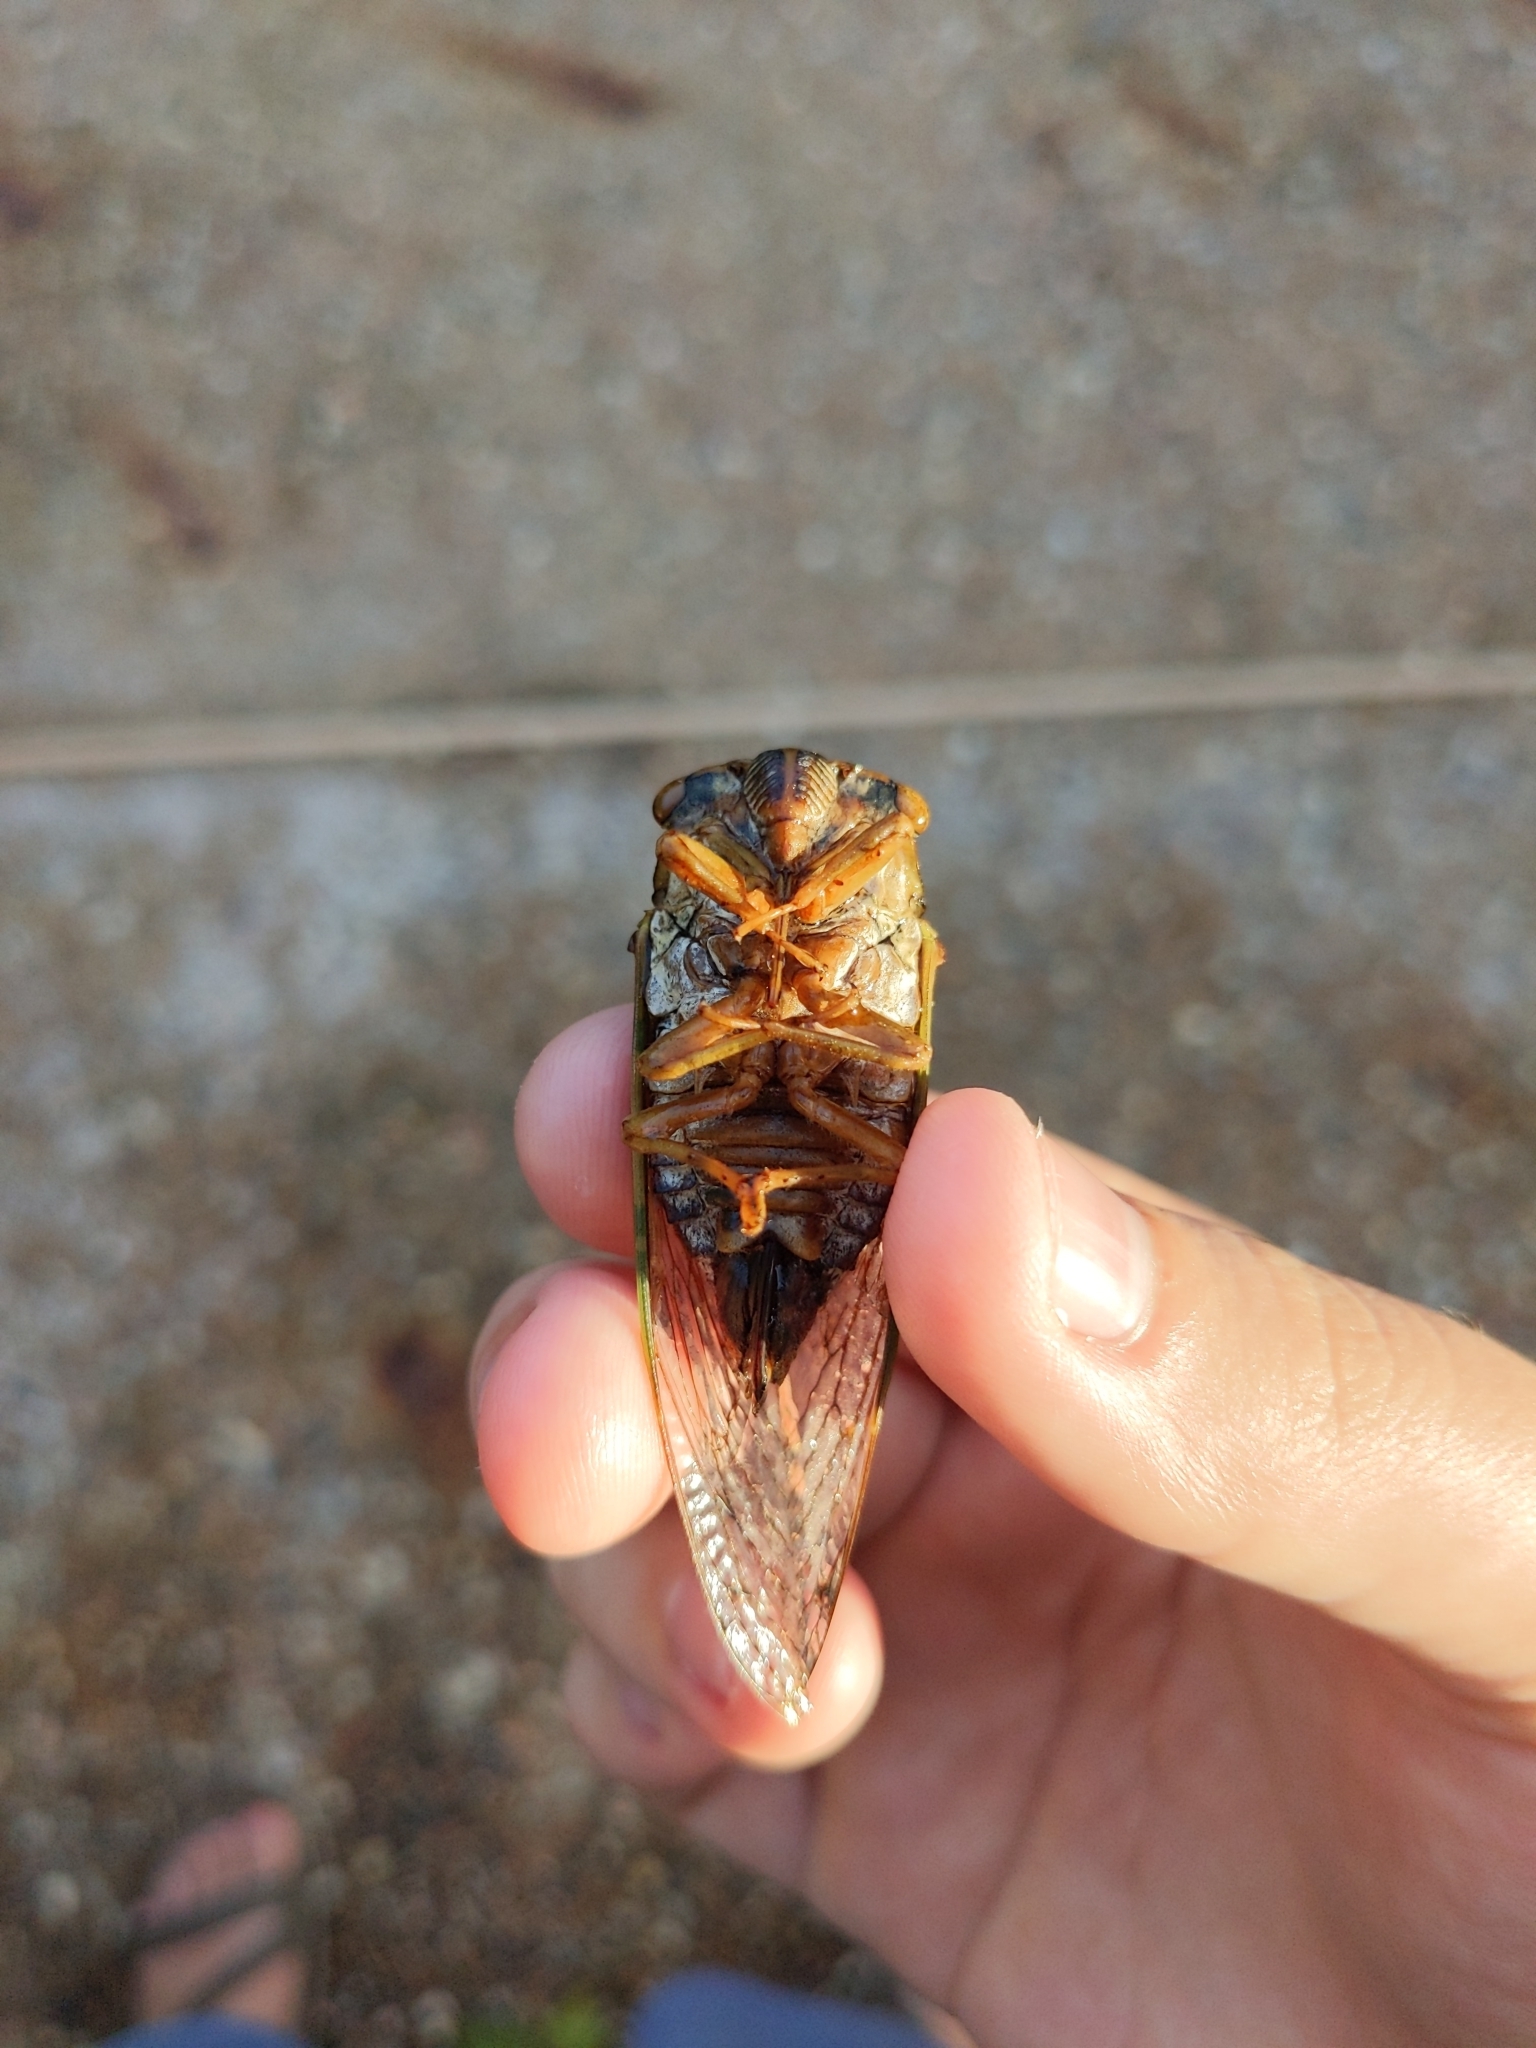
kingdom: Animalia
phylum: Arthropoda
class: Insecta
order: Hemiptera
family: Cicadidae
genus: Megatibicen
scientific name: Megatibicen resh
